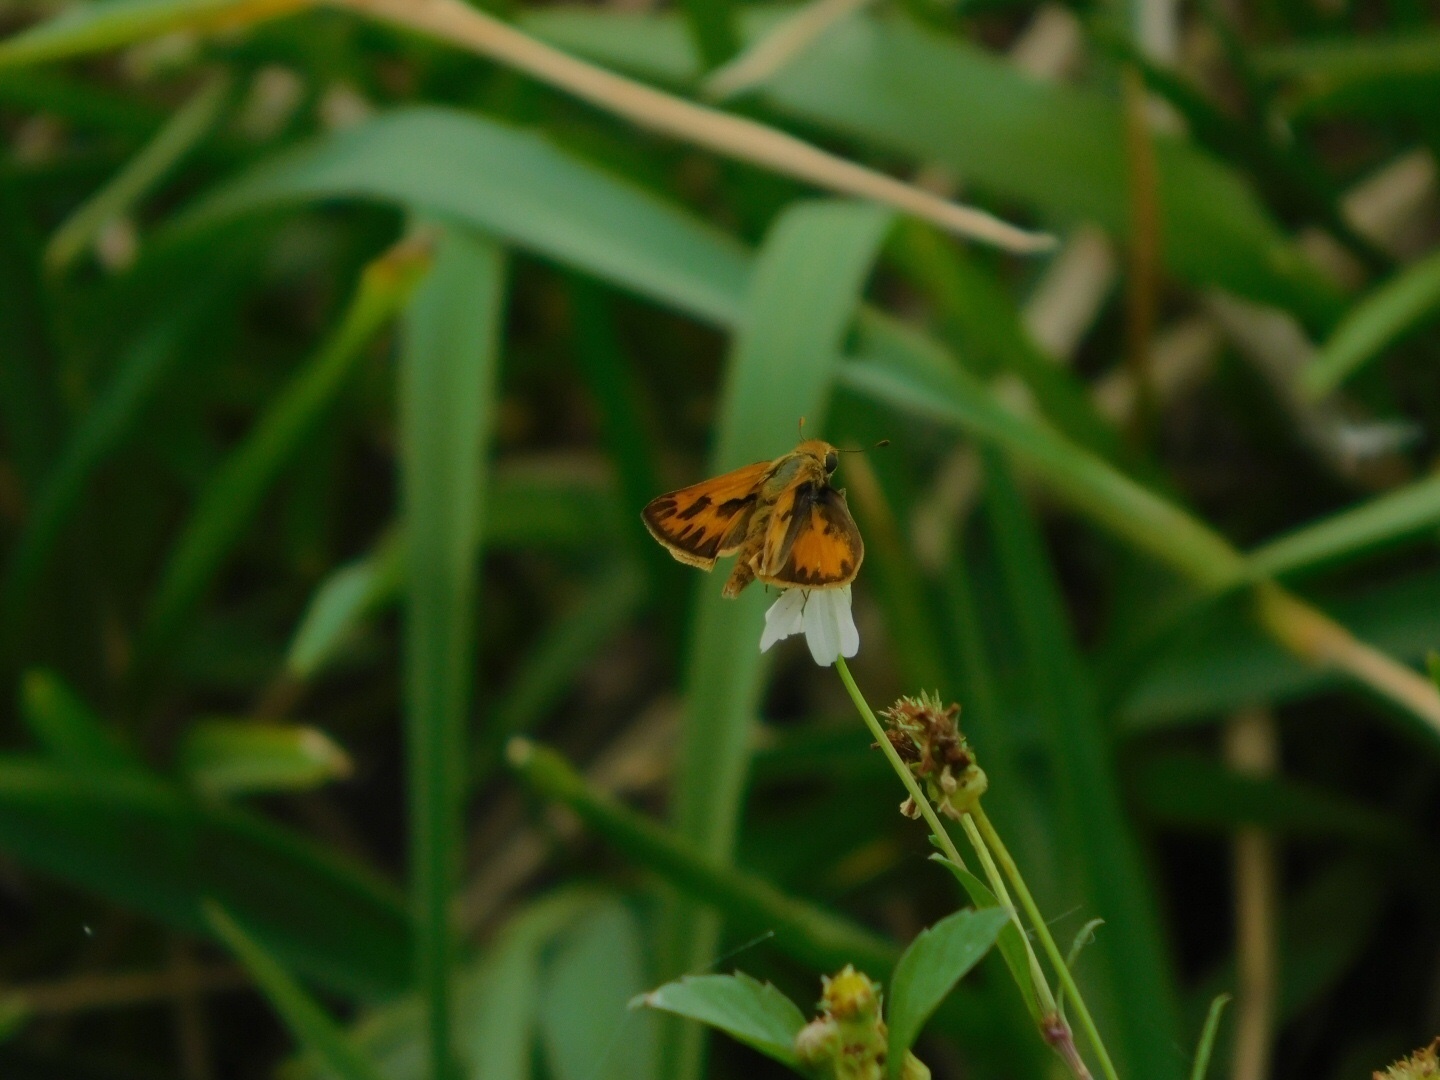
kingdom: Animalia
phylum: Arthropoda
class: Insecta
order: Lepidoptera
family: Hesperiidae
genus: Hylephila
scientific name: Hylephila phyleus
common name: Fiery skipper
